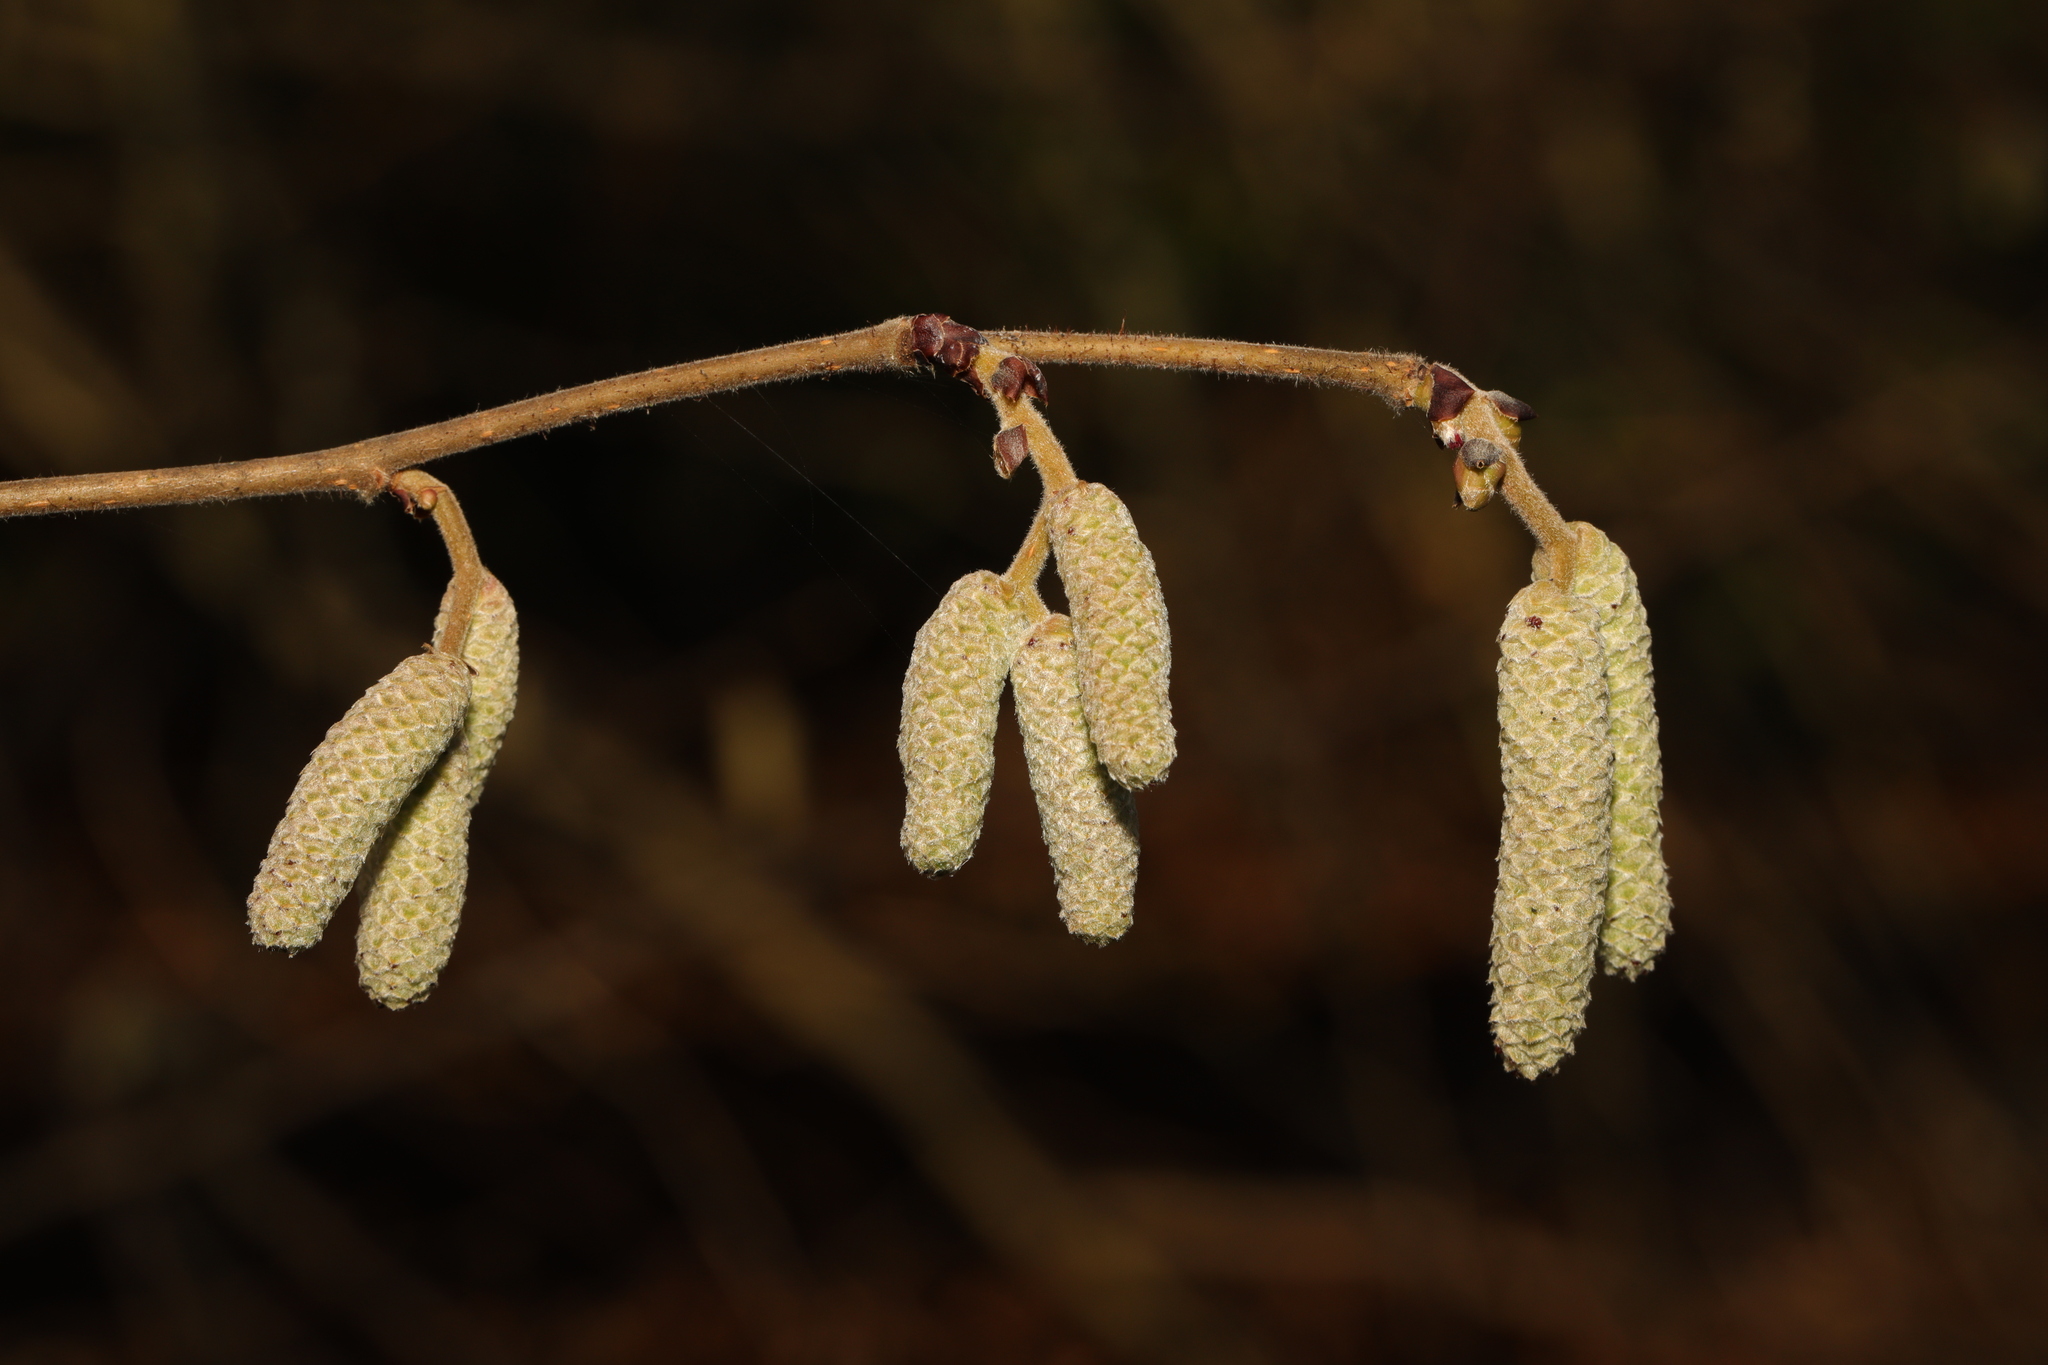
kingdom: Plantae
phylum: Tracheophyta
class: Magnoliopsida
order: Fagales
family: Betulaceae
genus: Corylus
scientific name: Corylus avellana
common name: European hazel
